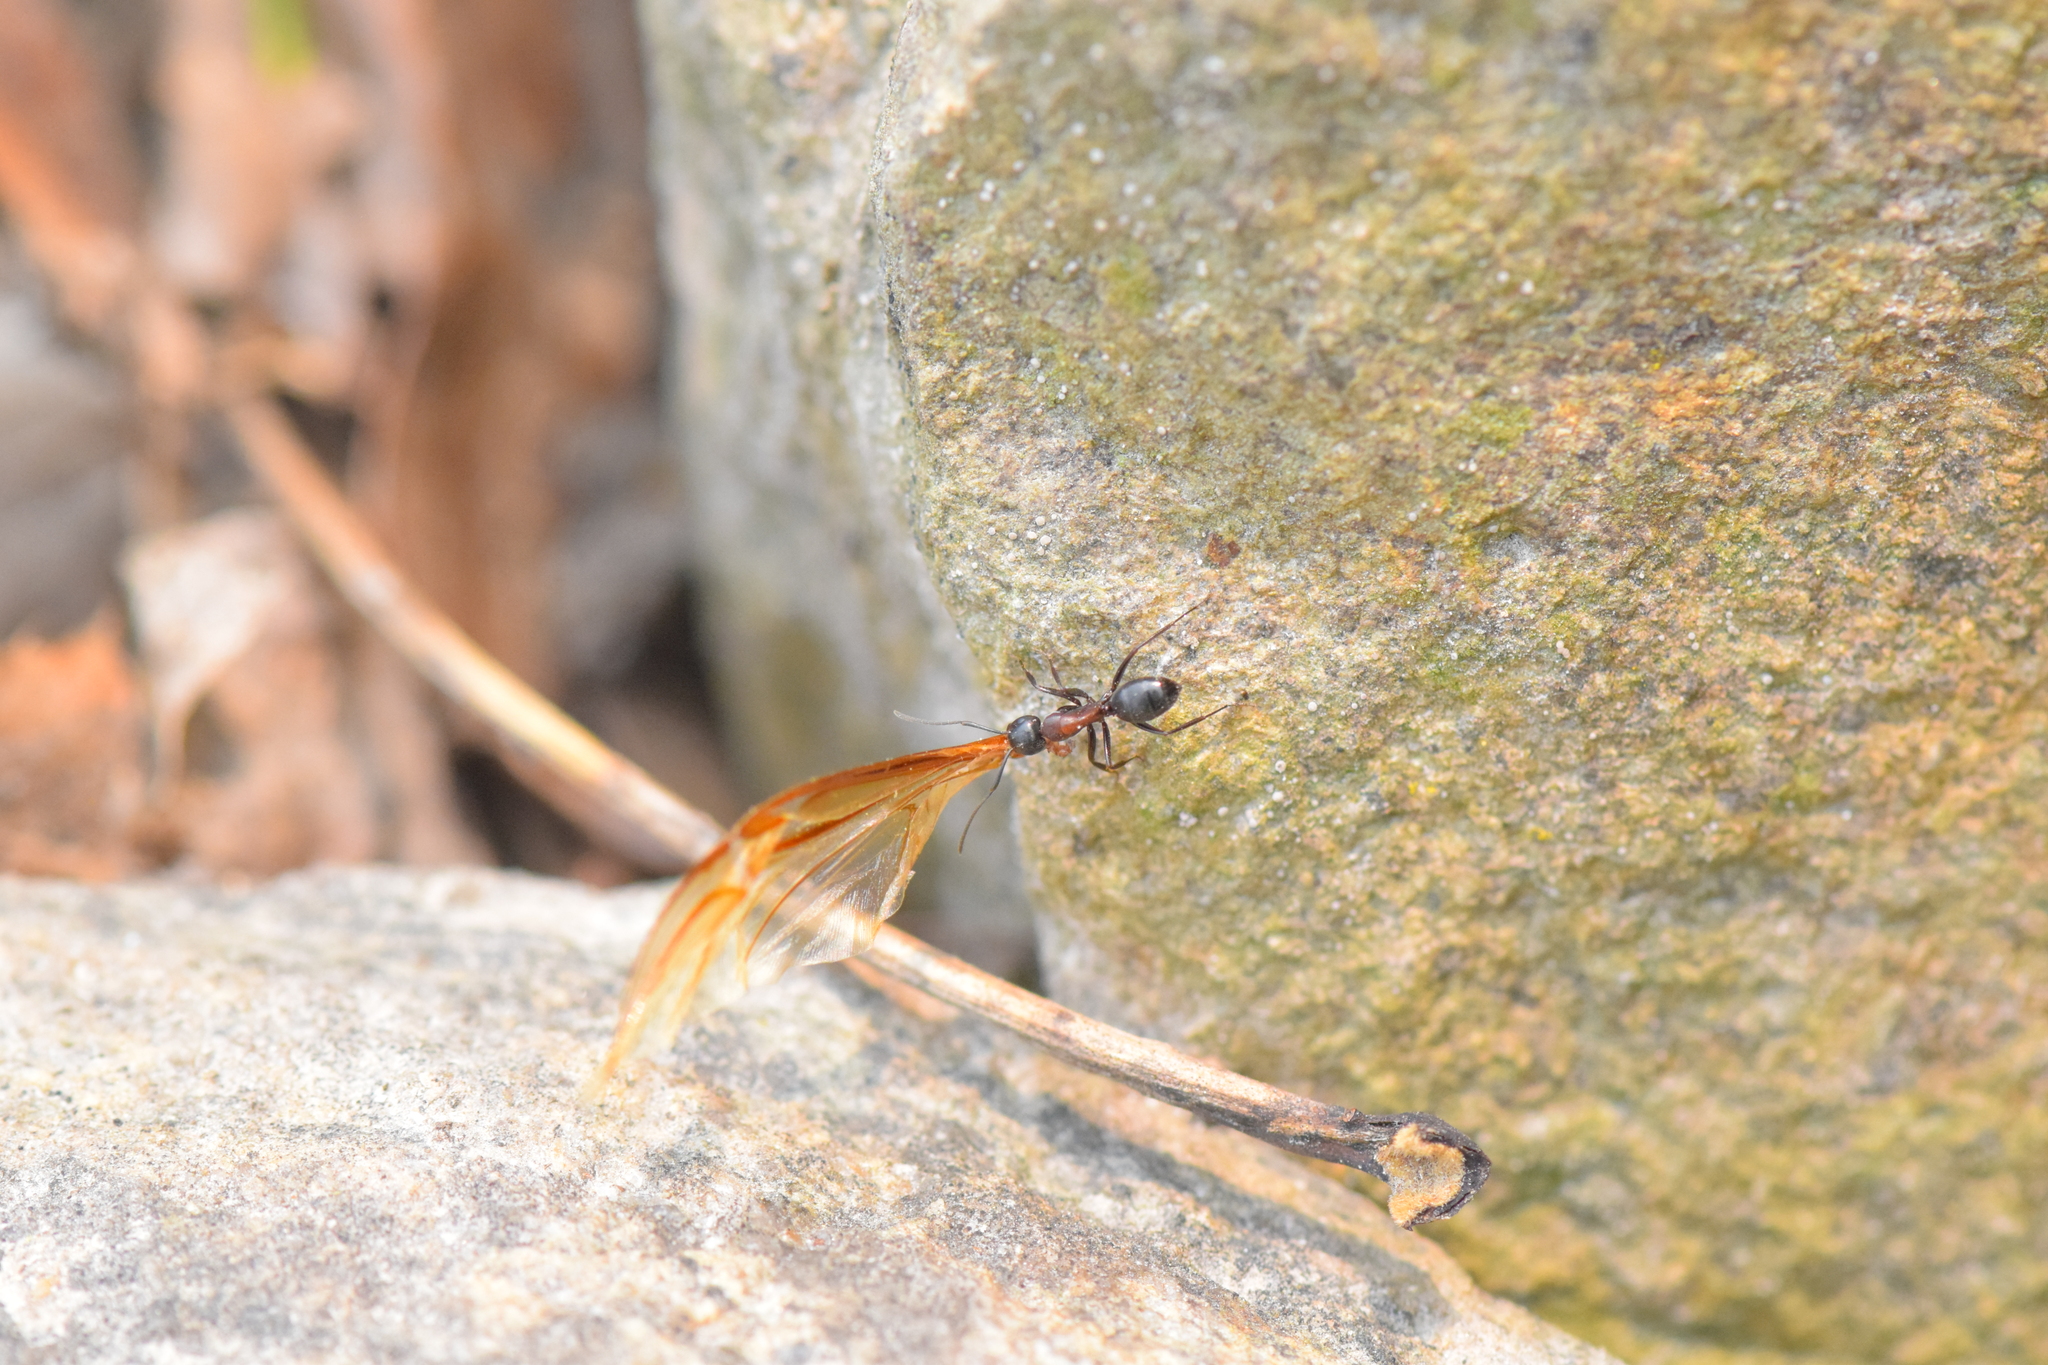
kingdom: Animalia
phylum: Arthropoda
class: Insecta
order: Hymenoptera
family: Formicidae
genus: Camponotus
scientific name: Camponotus novaeboracensis
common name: New york carpenter ant
